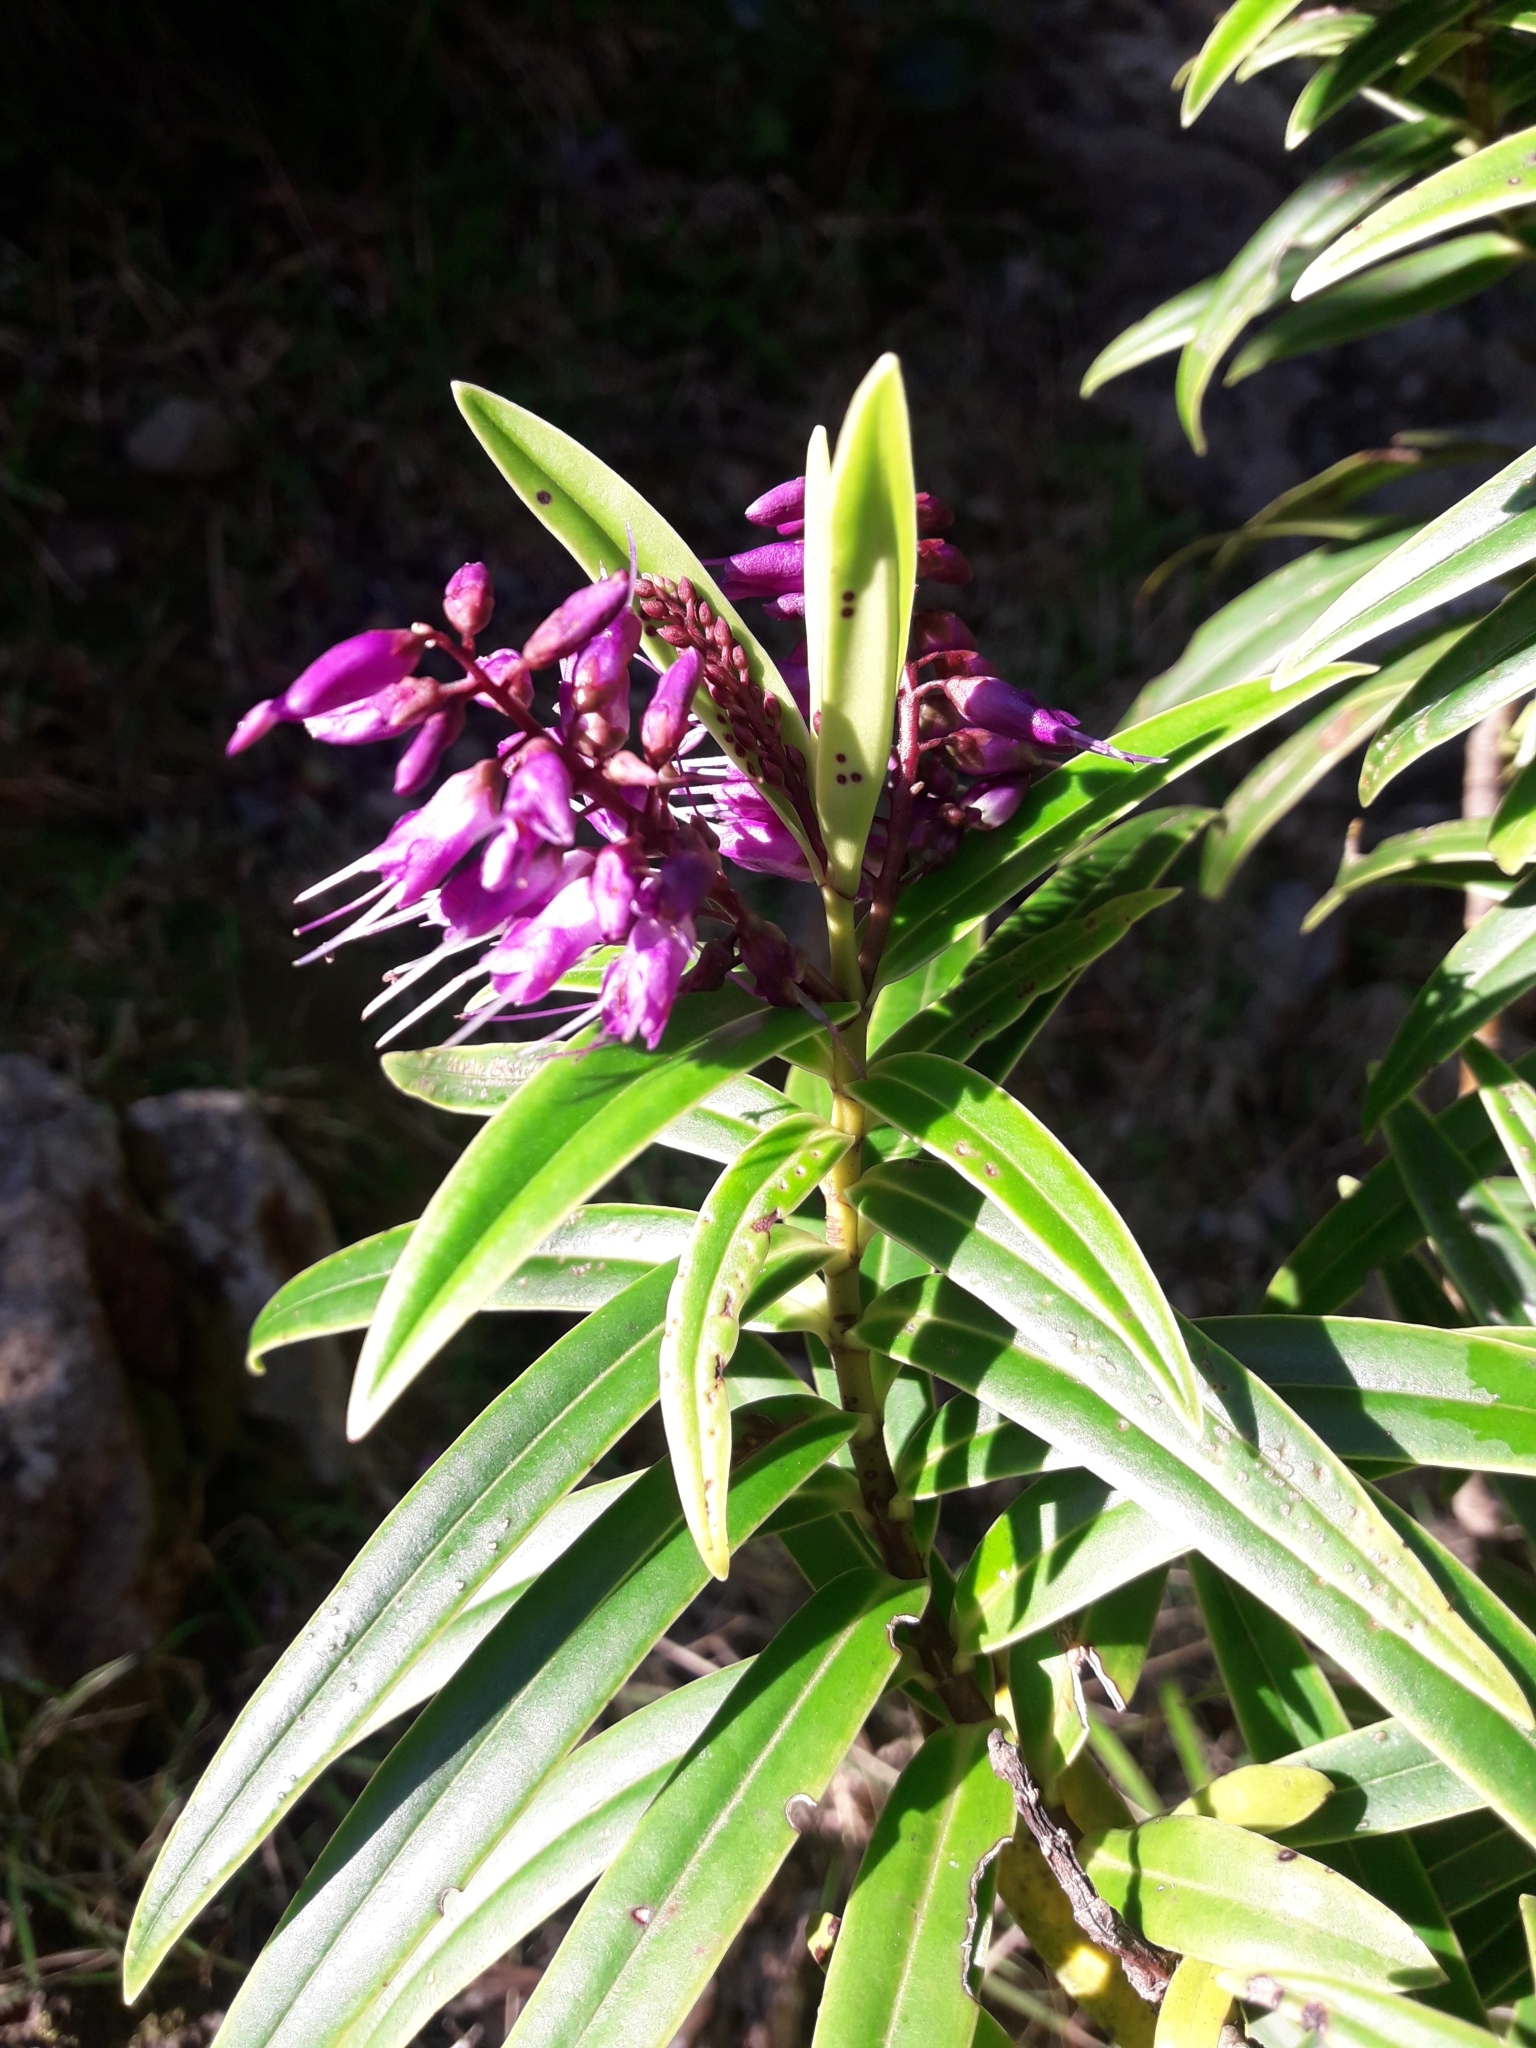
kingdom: Plantae
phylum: Tracheophyta
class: Magnoliopsida
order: Lamiales
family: Plantaginaceae
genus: Veronica
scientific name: Veronica macrocarpa
